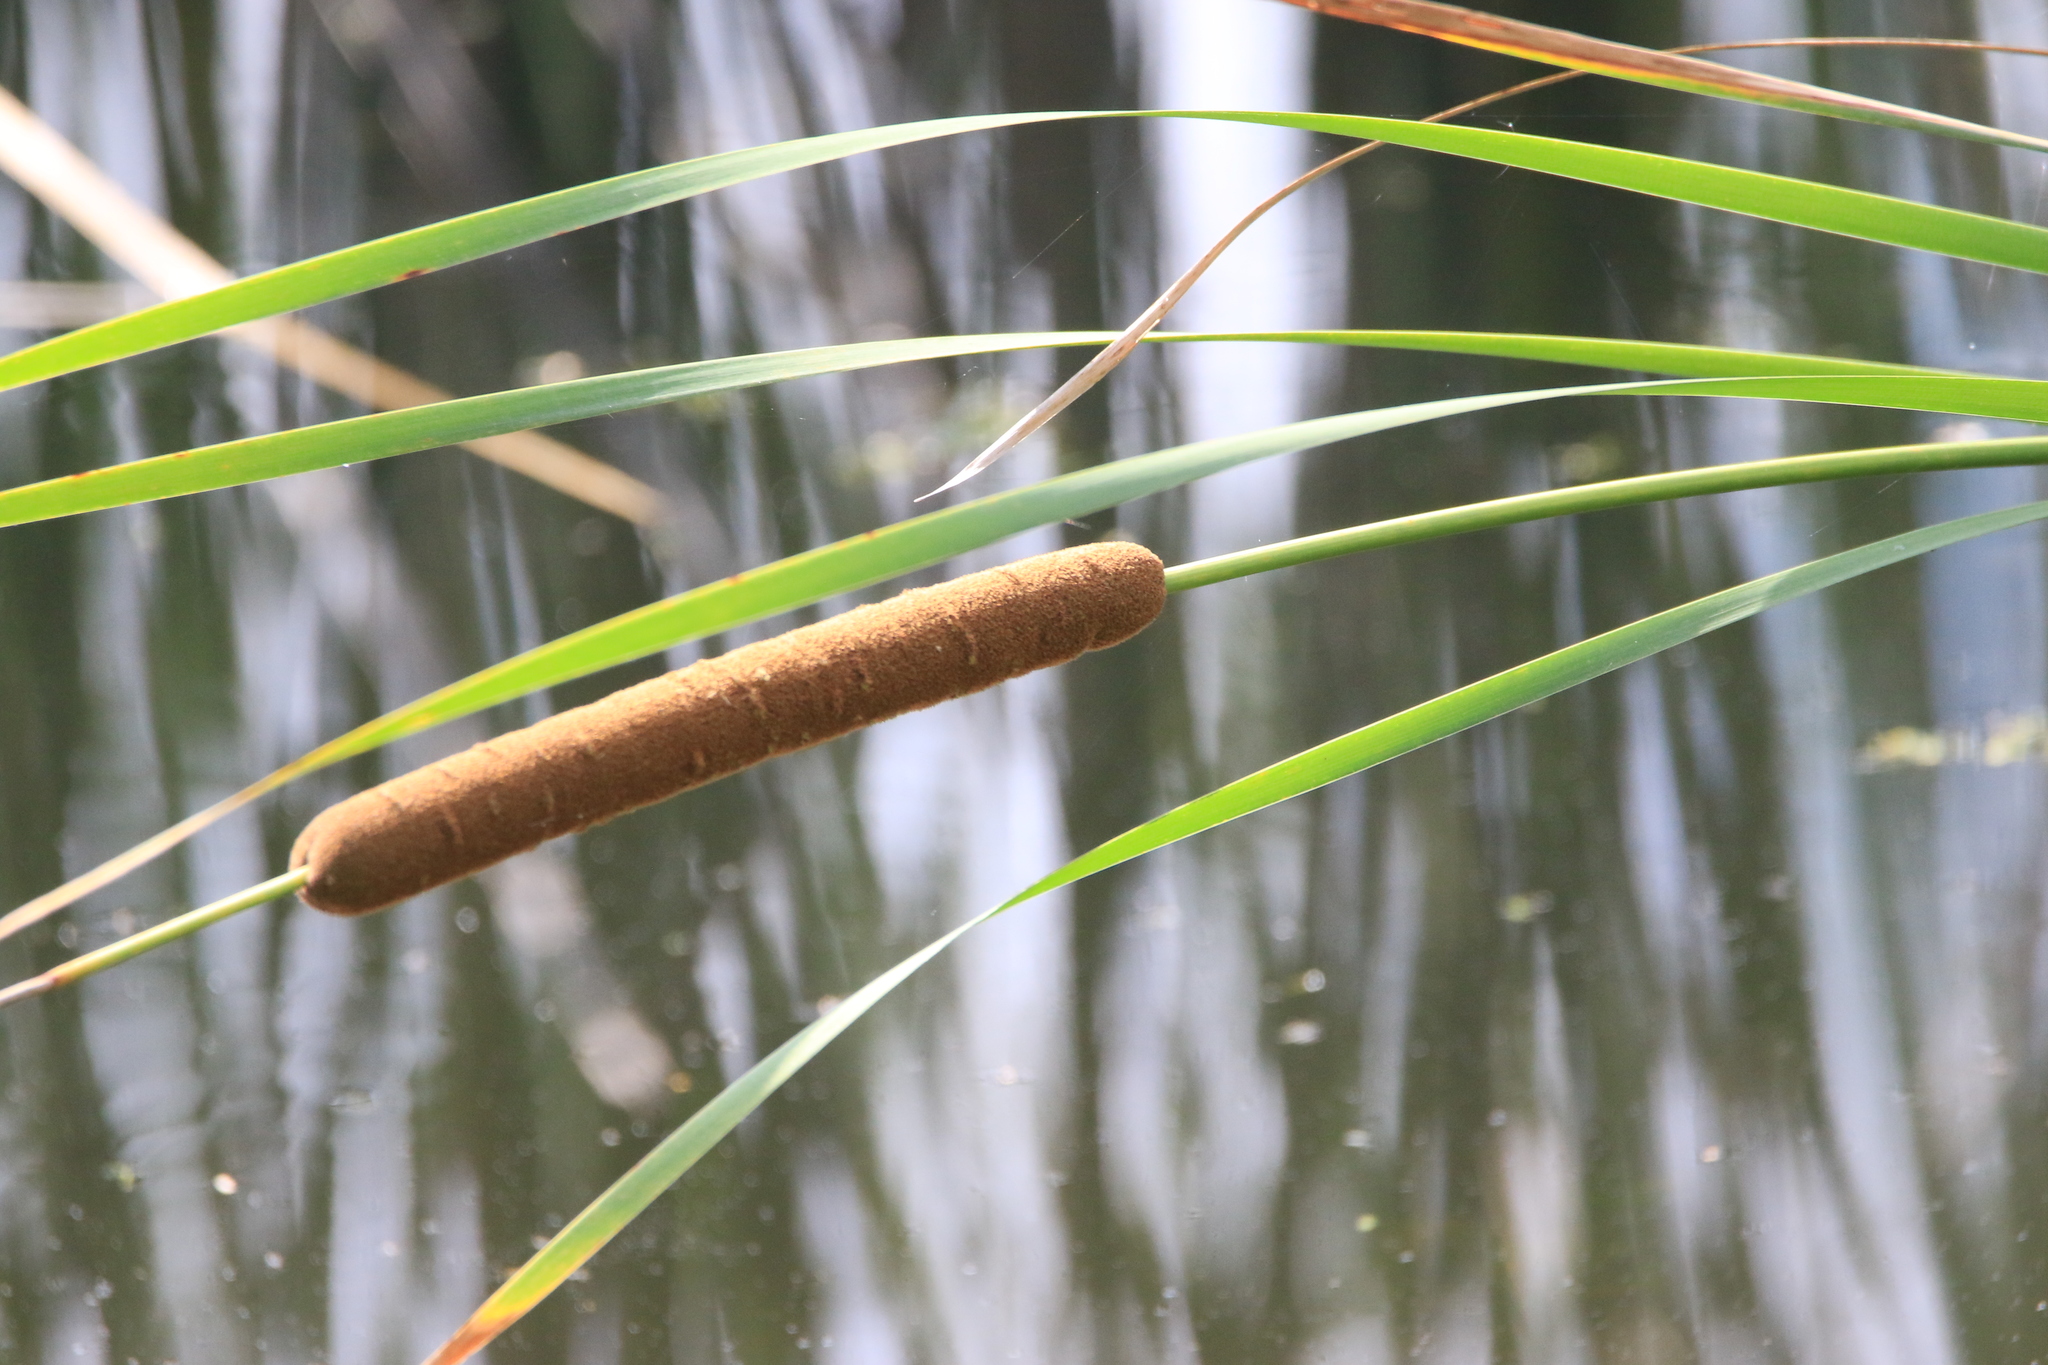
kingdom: Plantae
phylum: Tracheophyta
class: Liliopsida
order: Poales
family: Typhaceae
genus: Typha
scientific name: Typha angustifolia
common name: Lesser bulrush
